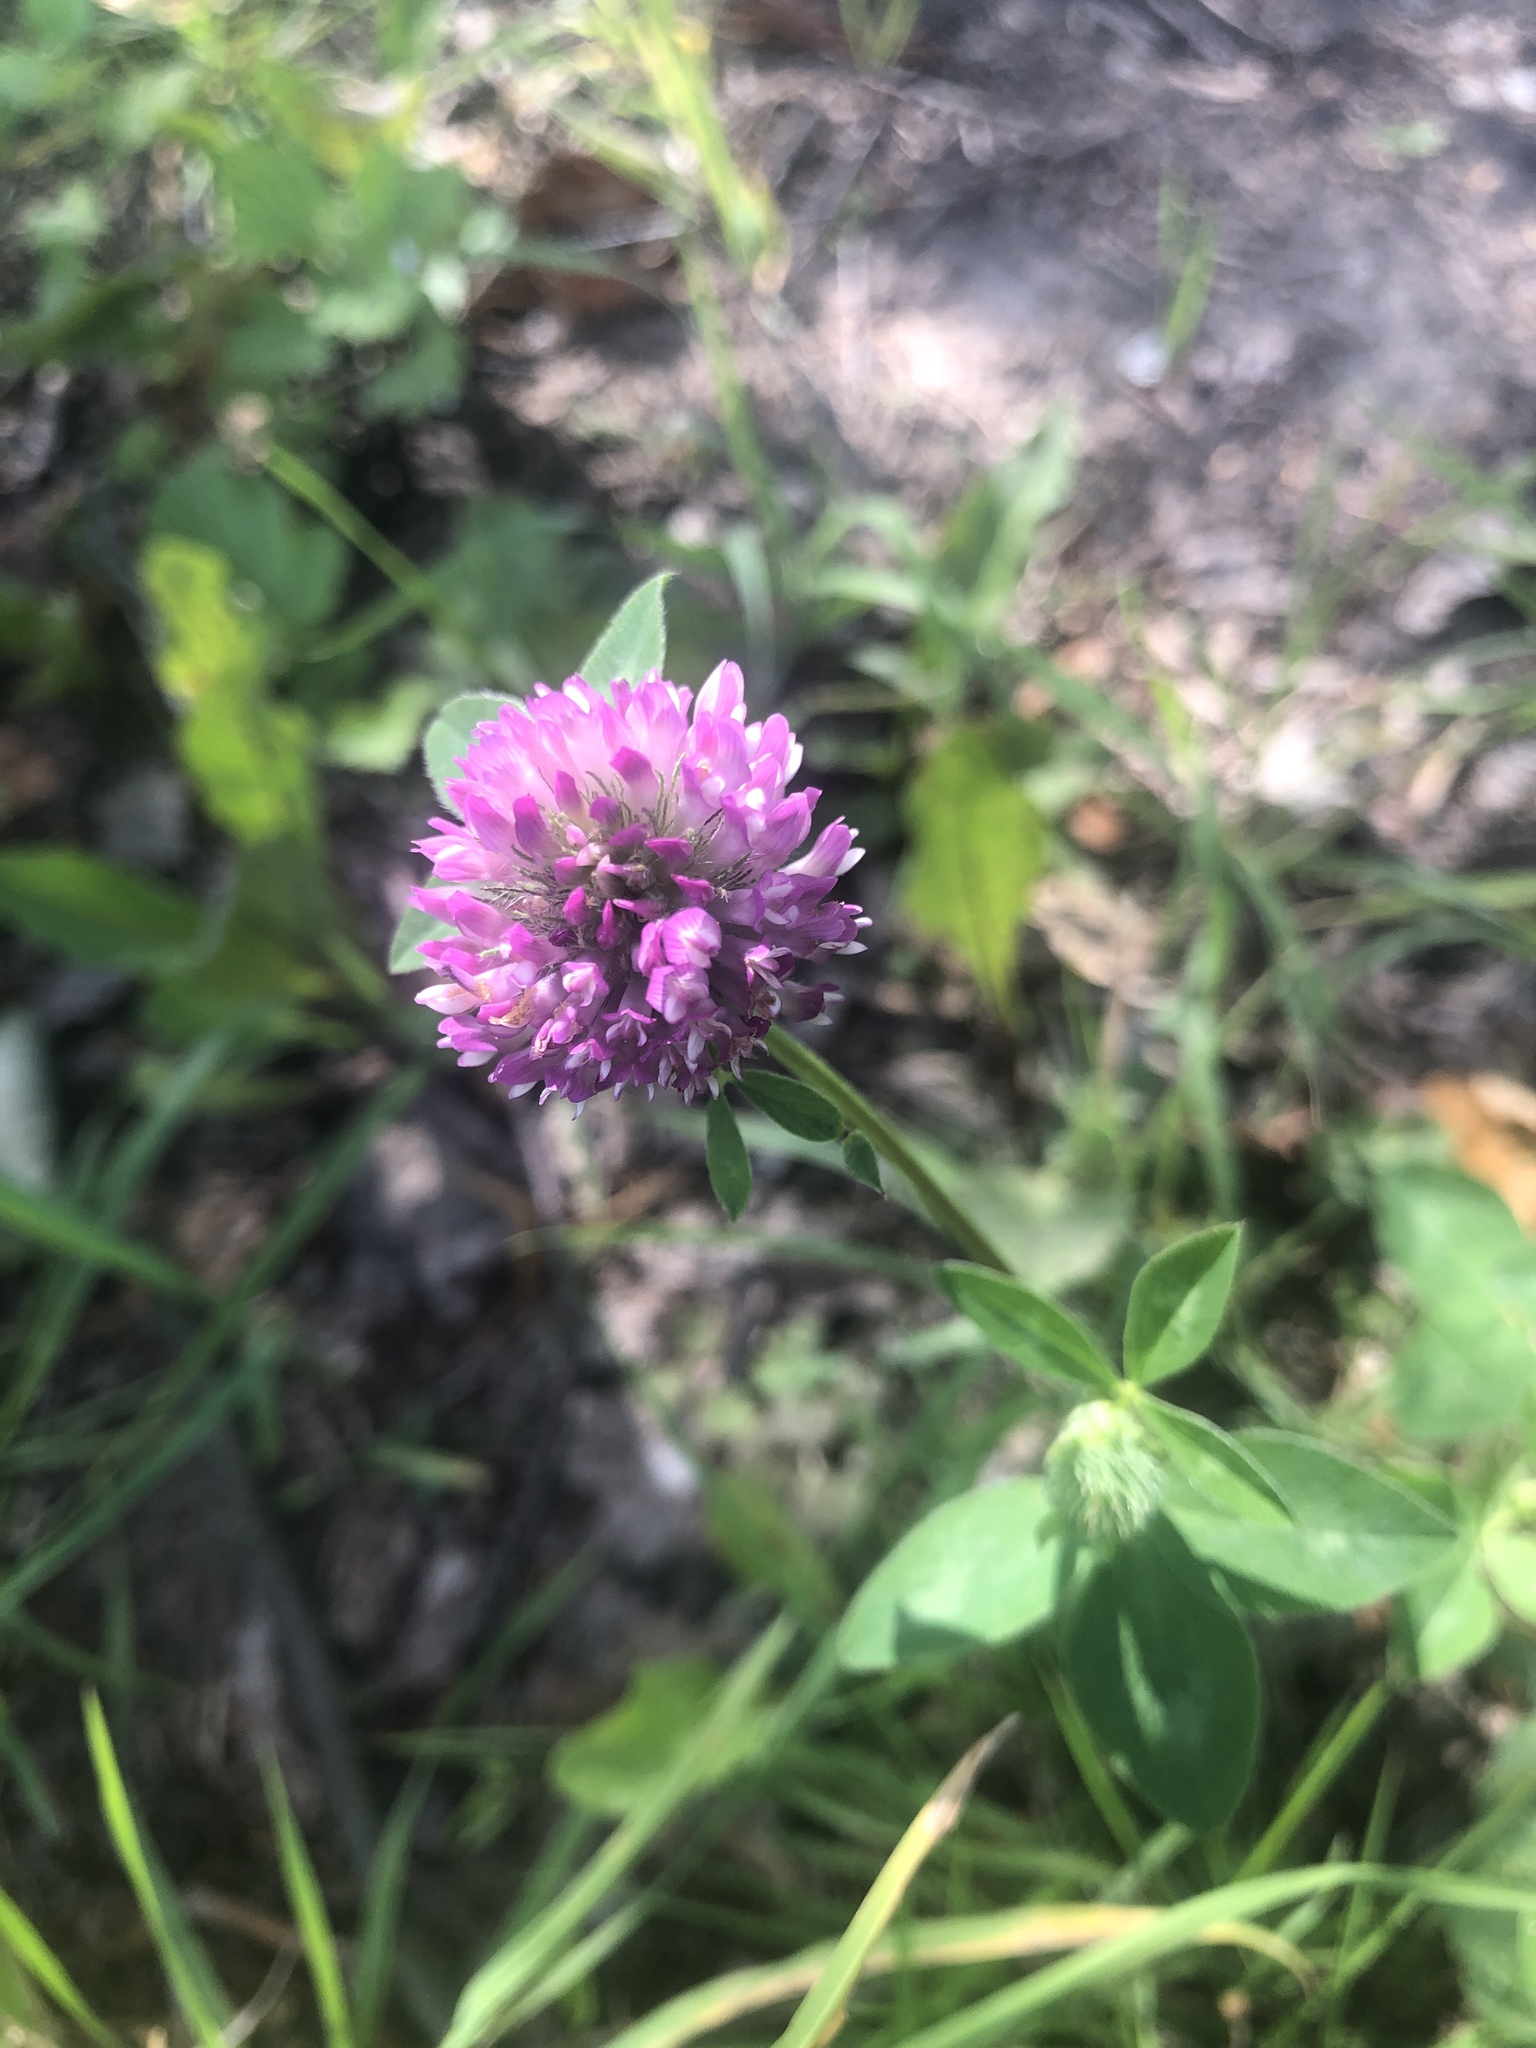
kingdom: Plantae
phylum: Tracheophyta
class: Magnoliopsida
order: Fabales
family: Fabaceae
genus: Trifolium
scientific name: Trifolium pratense
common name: Red clover
